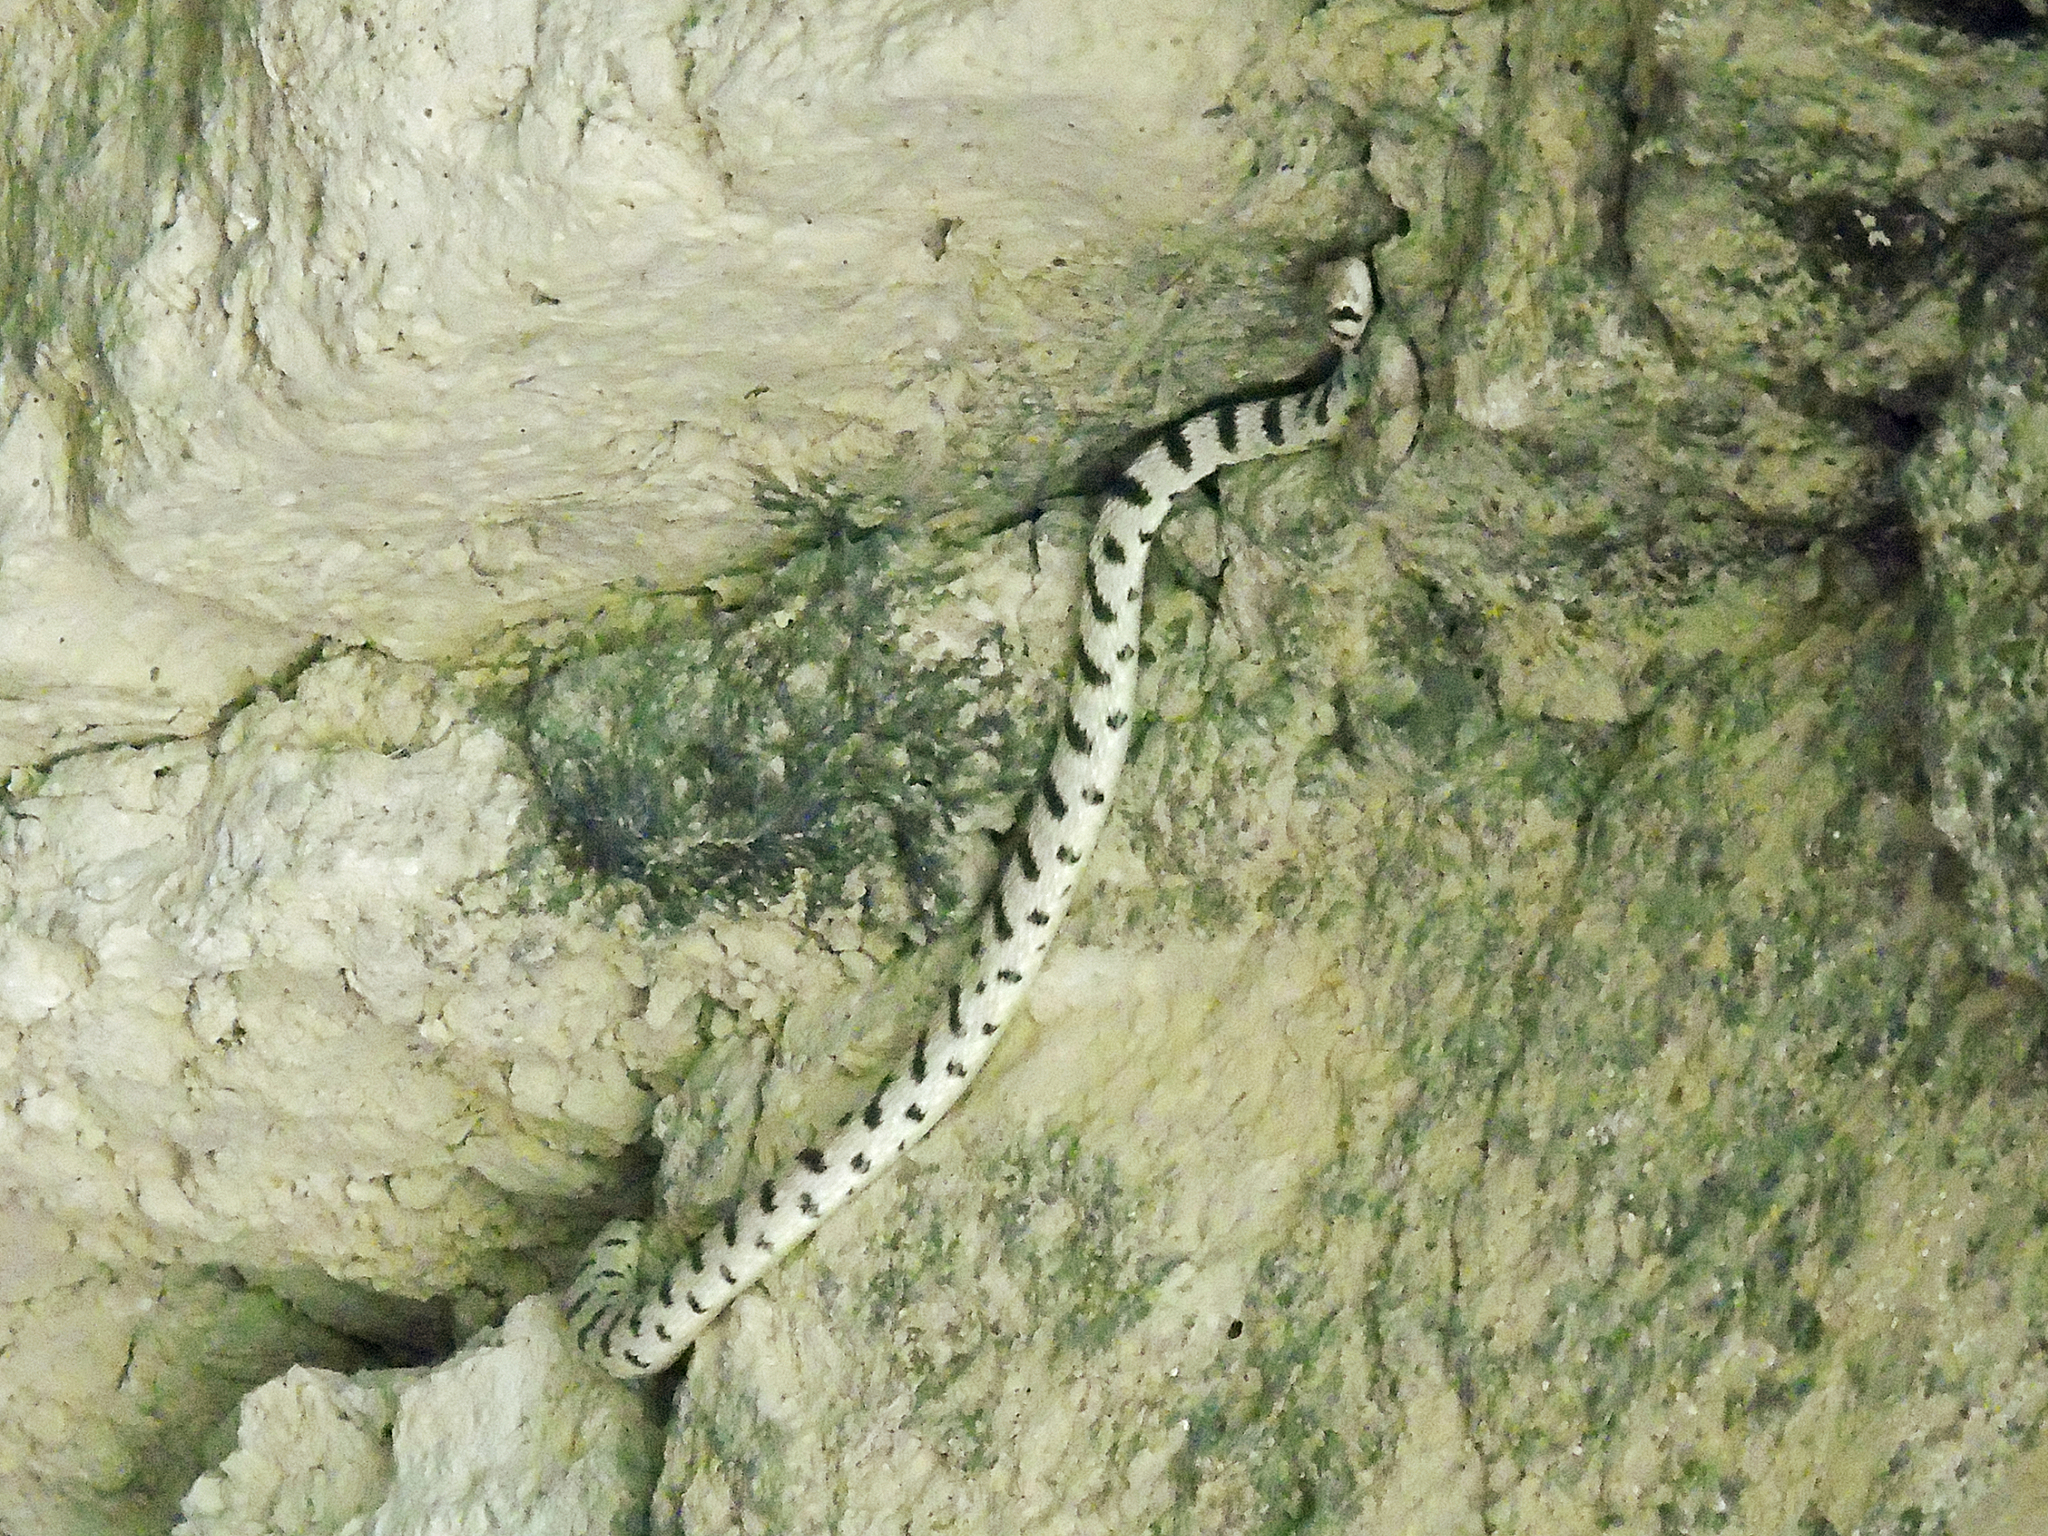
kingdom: Animalia
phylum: Chordata
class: Squamata
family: Colubridae
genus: Platyceps
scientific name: Platyceps karelini
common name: Spotted desert racer
